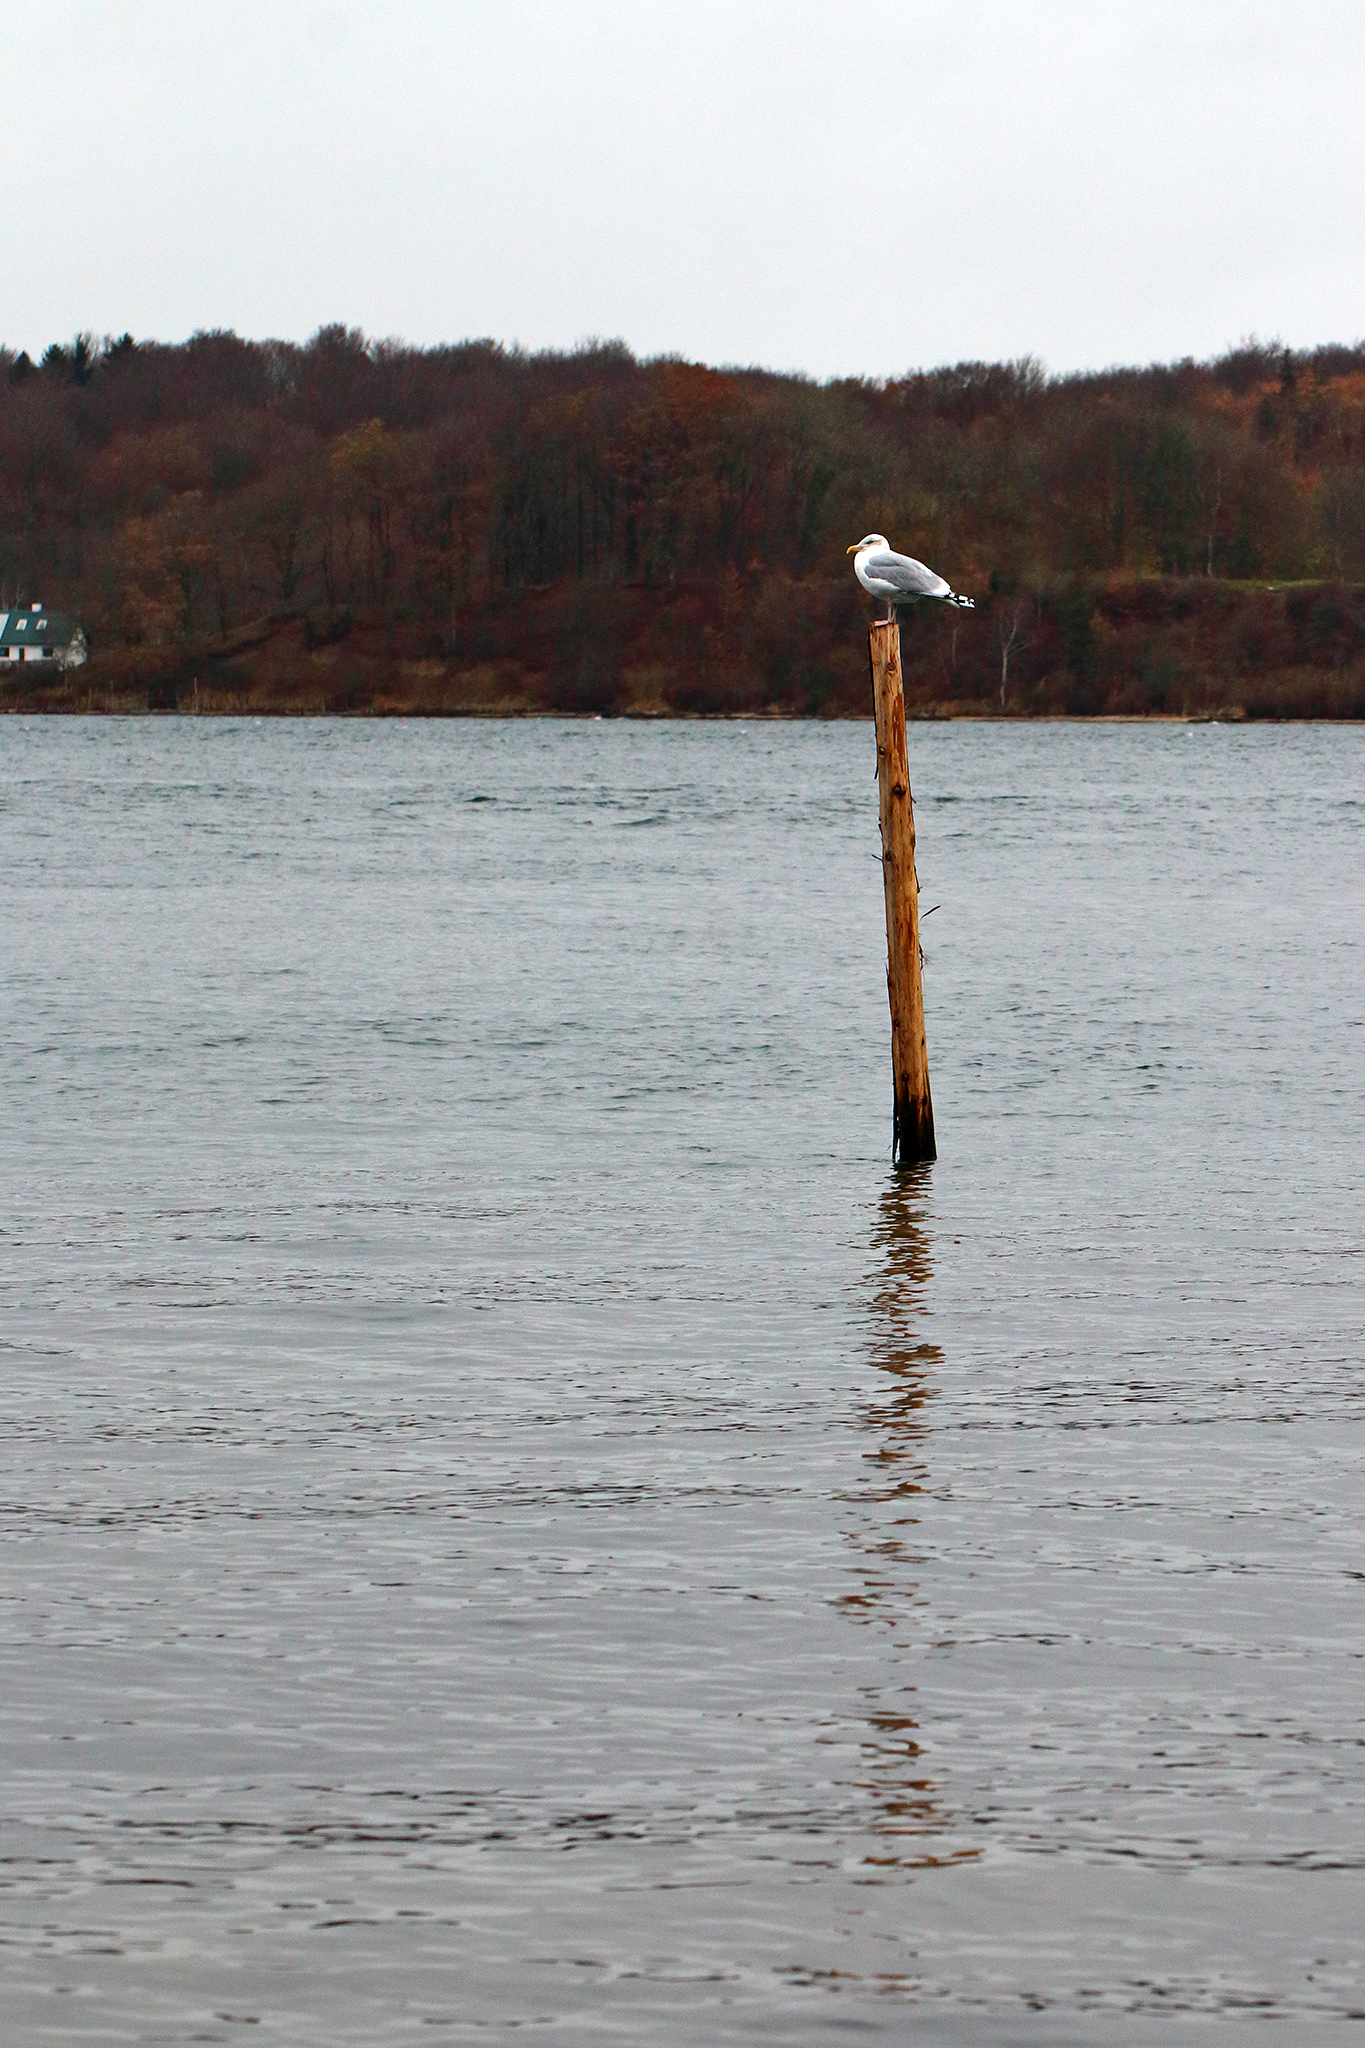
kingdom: Animalia
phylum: Chordata
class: Aves
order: Charadriiformes
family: Laridae
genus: Larus
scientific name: Larus argentatus
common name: Herring gull
